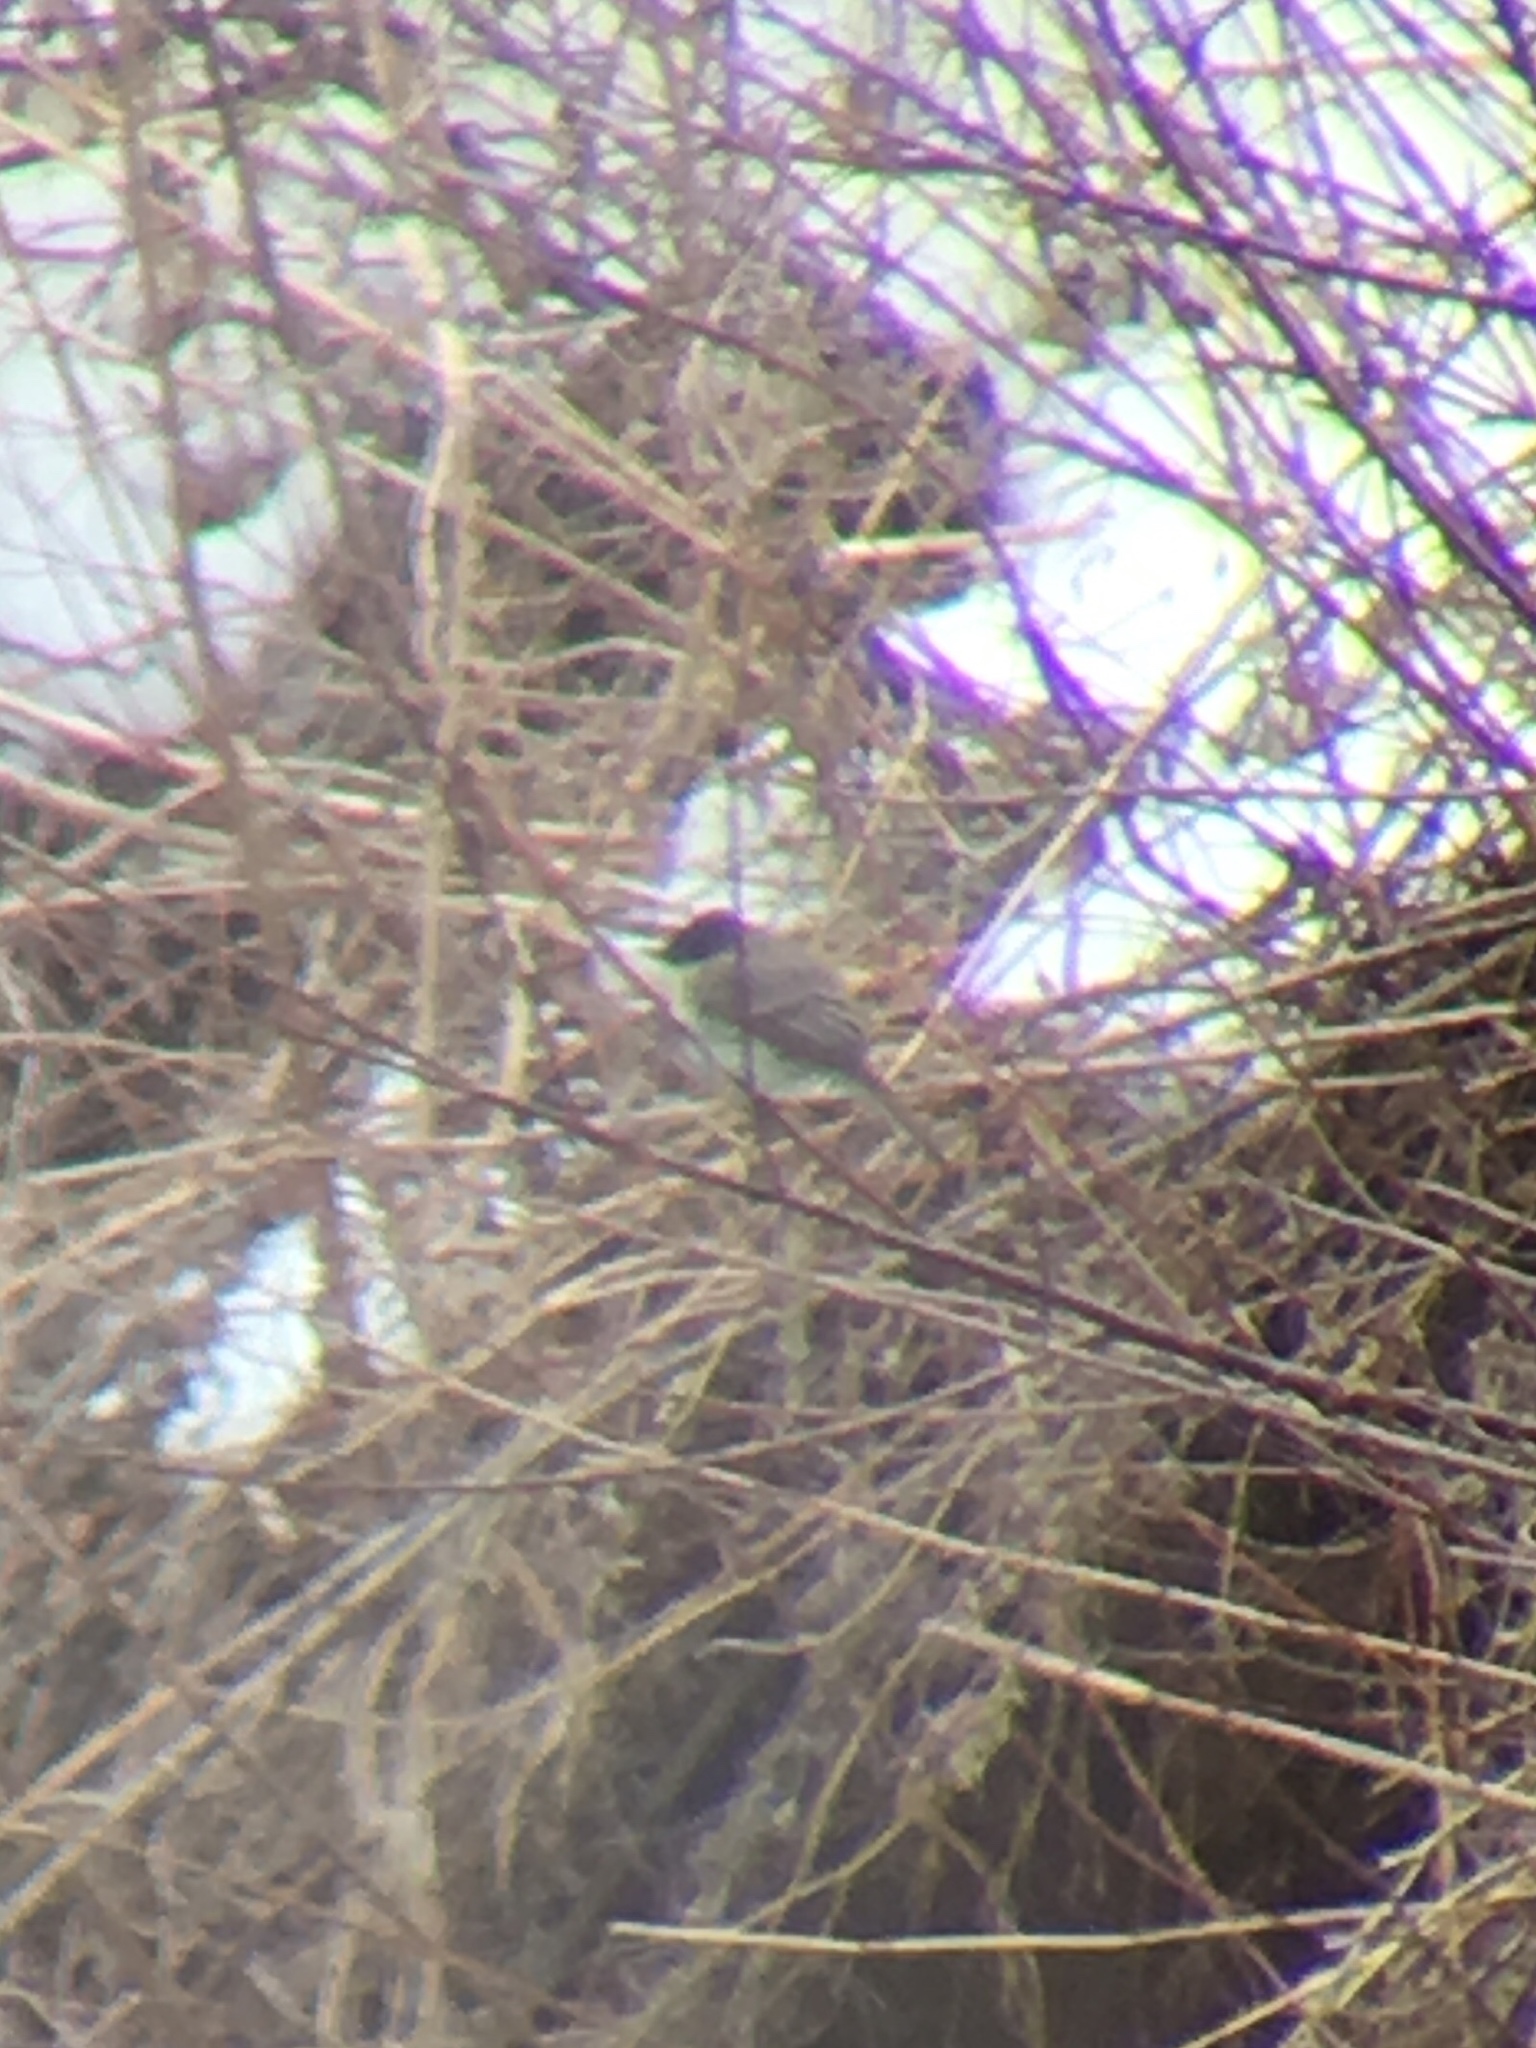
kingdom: Animalia
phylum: Chordata
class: Aves
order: Passeriformes
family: Tyrannidae
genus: Sayornis
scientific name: Sayornis phoebe
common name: Eastern phoebe
